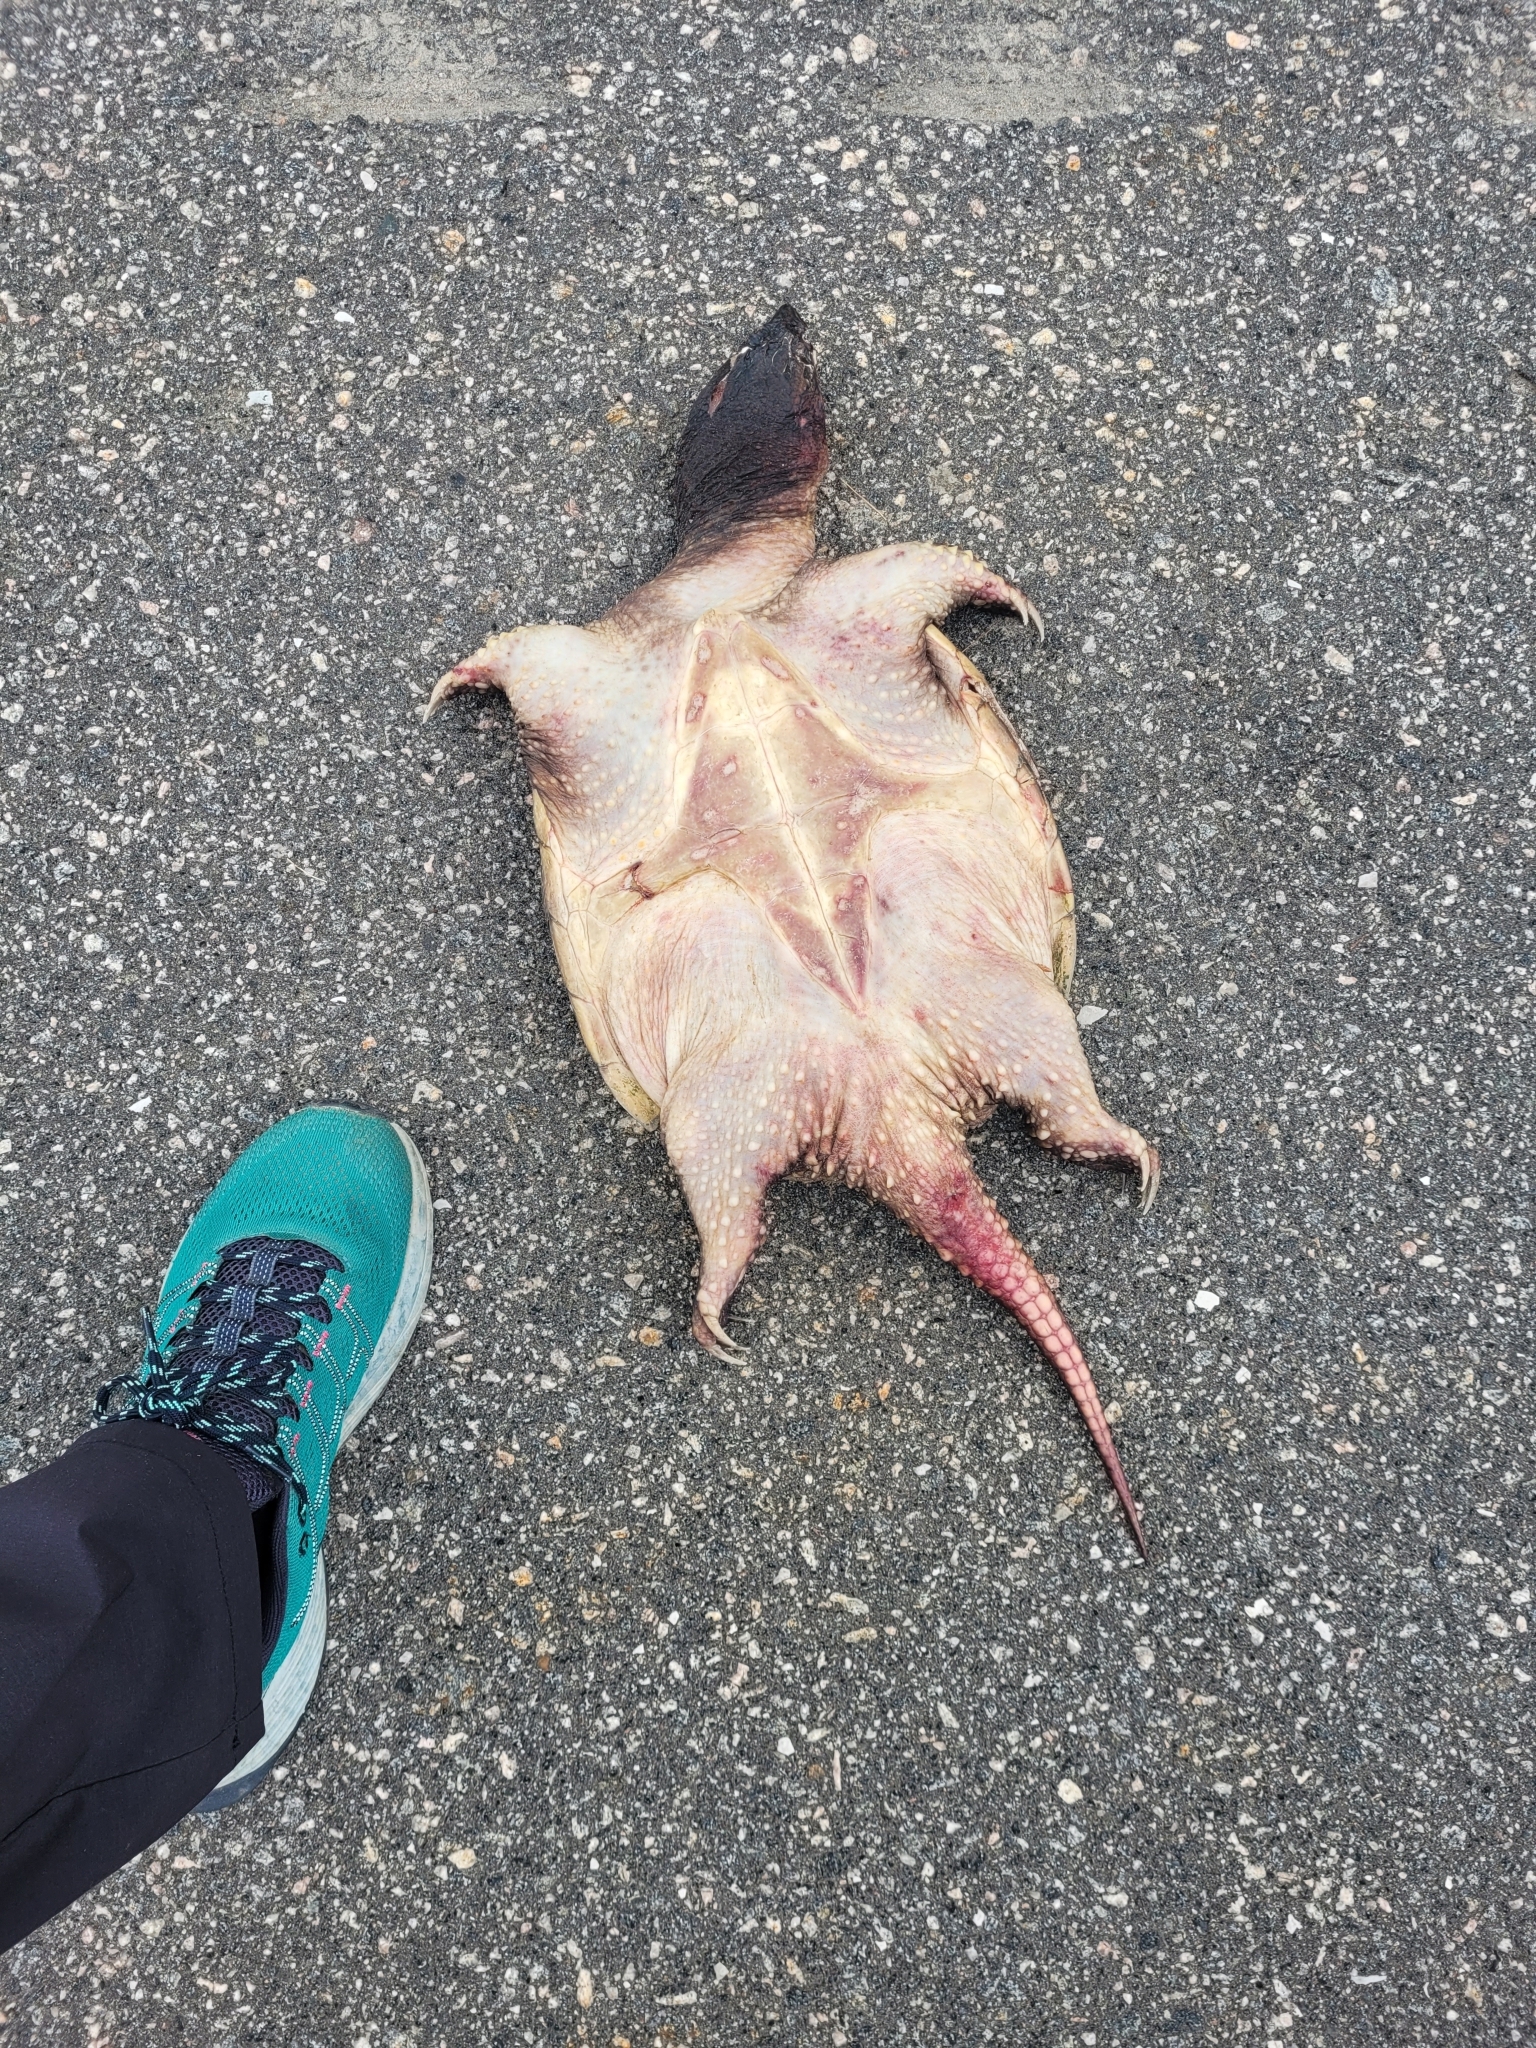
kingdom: Animalia
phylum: Chordata
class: Testudines
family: Chelydridae
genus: Chelydra
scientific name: Chelydra serpentina
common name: Common snapping turtle
